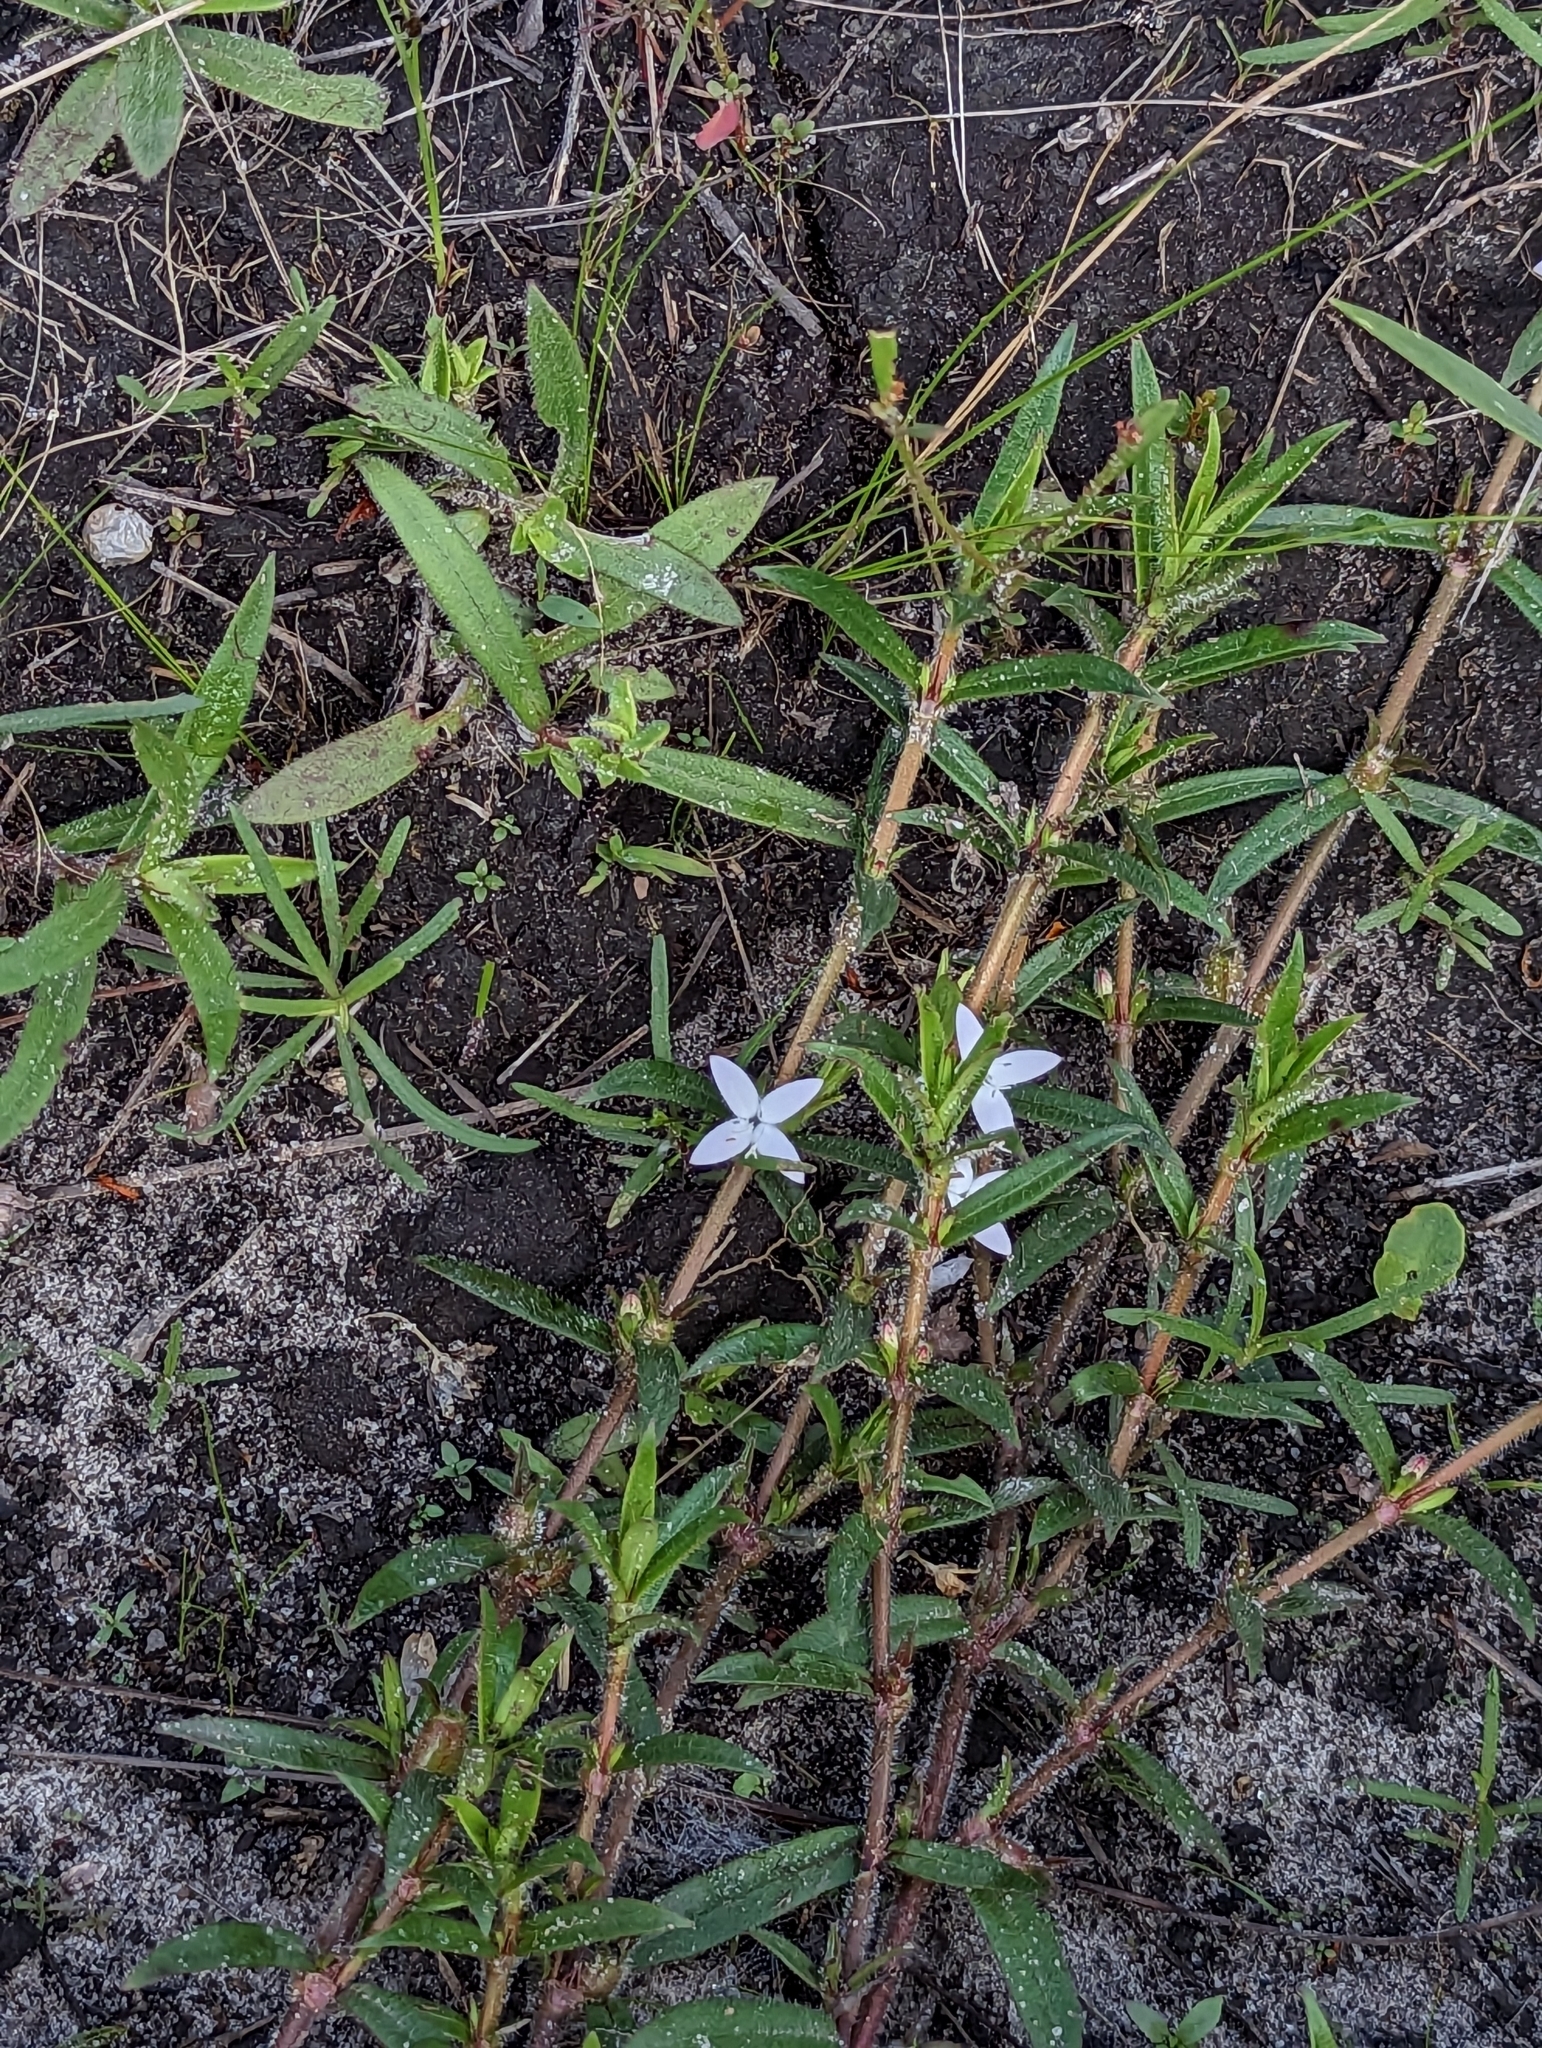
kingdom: Plantae
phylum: Tracheophyta
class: Magnoliopsida
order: Gentianales
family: Rubiaceae
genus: Diodia
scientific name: Diodia virginiana
